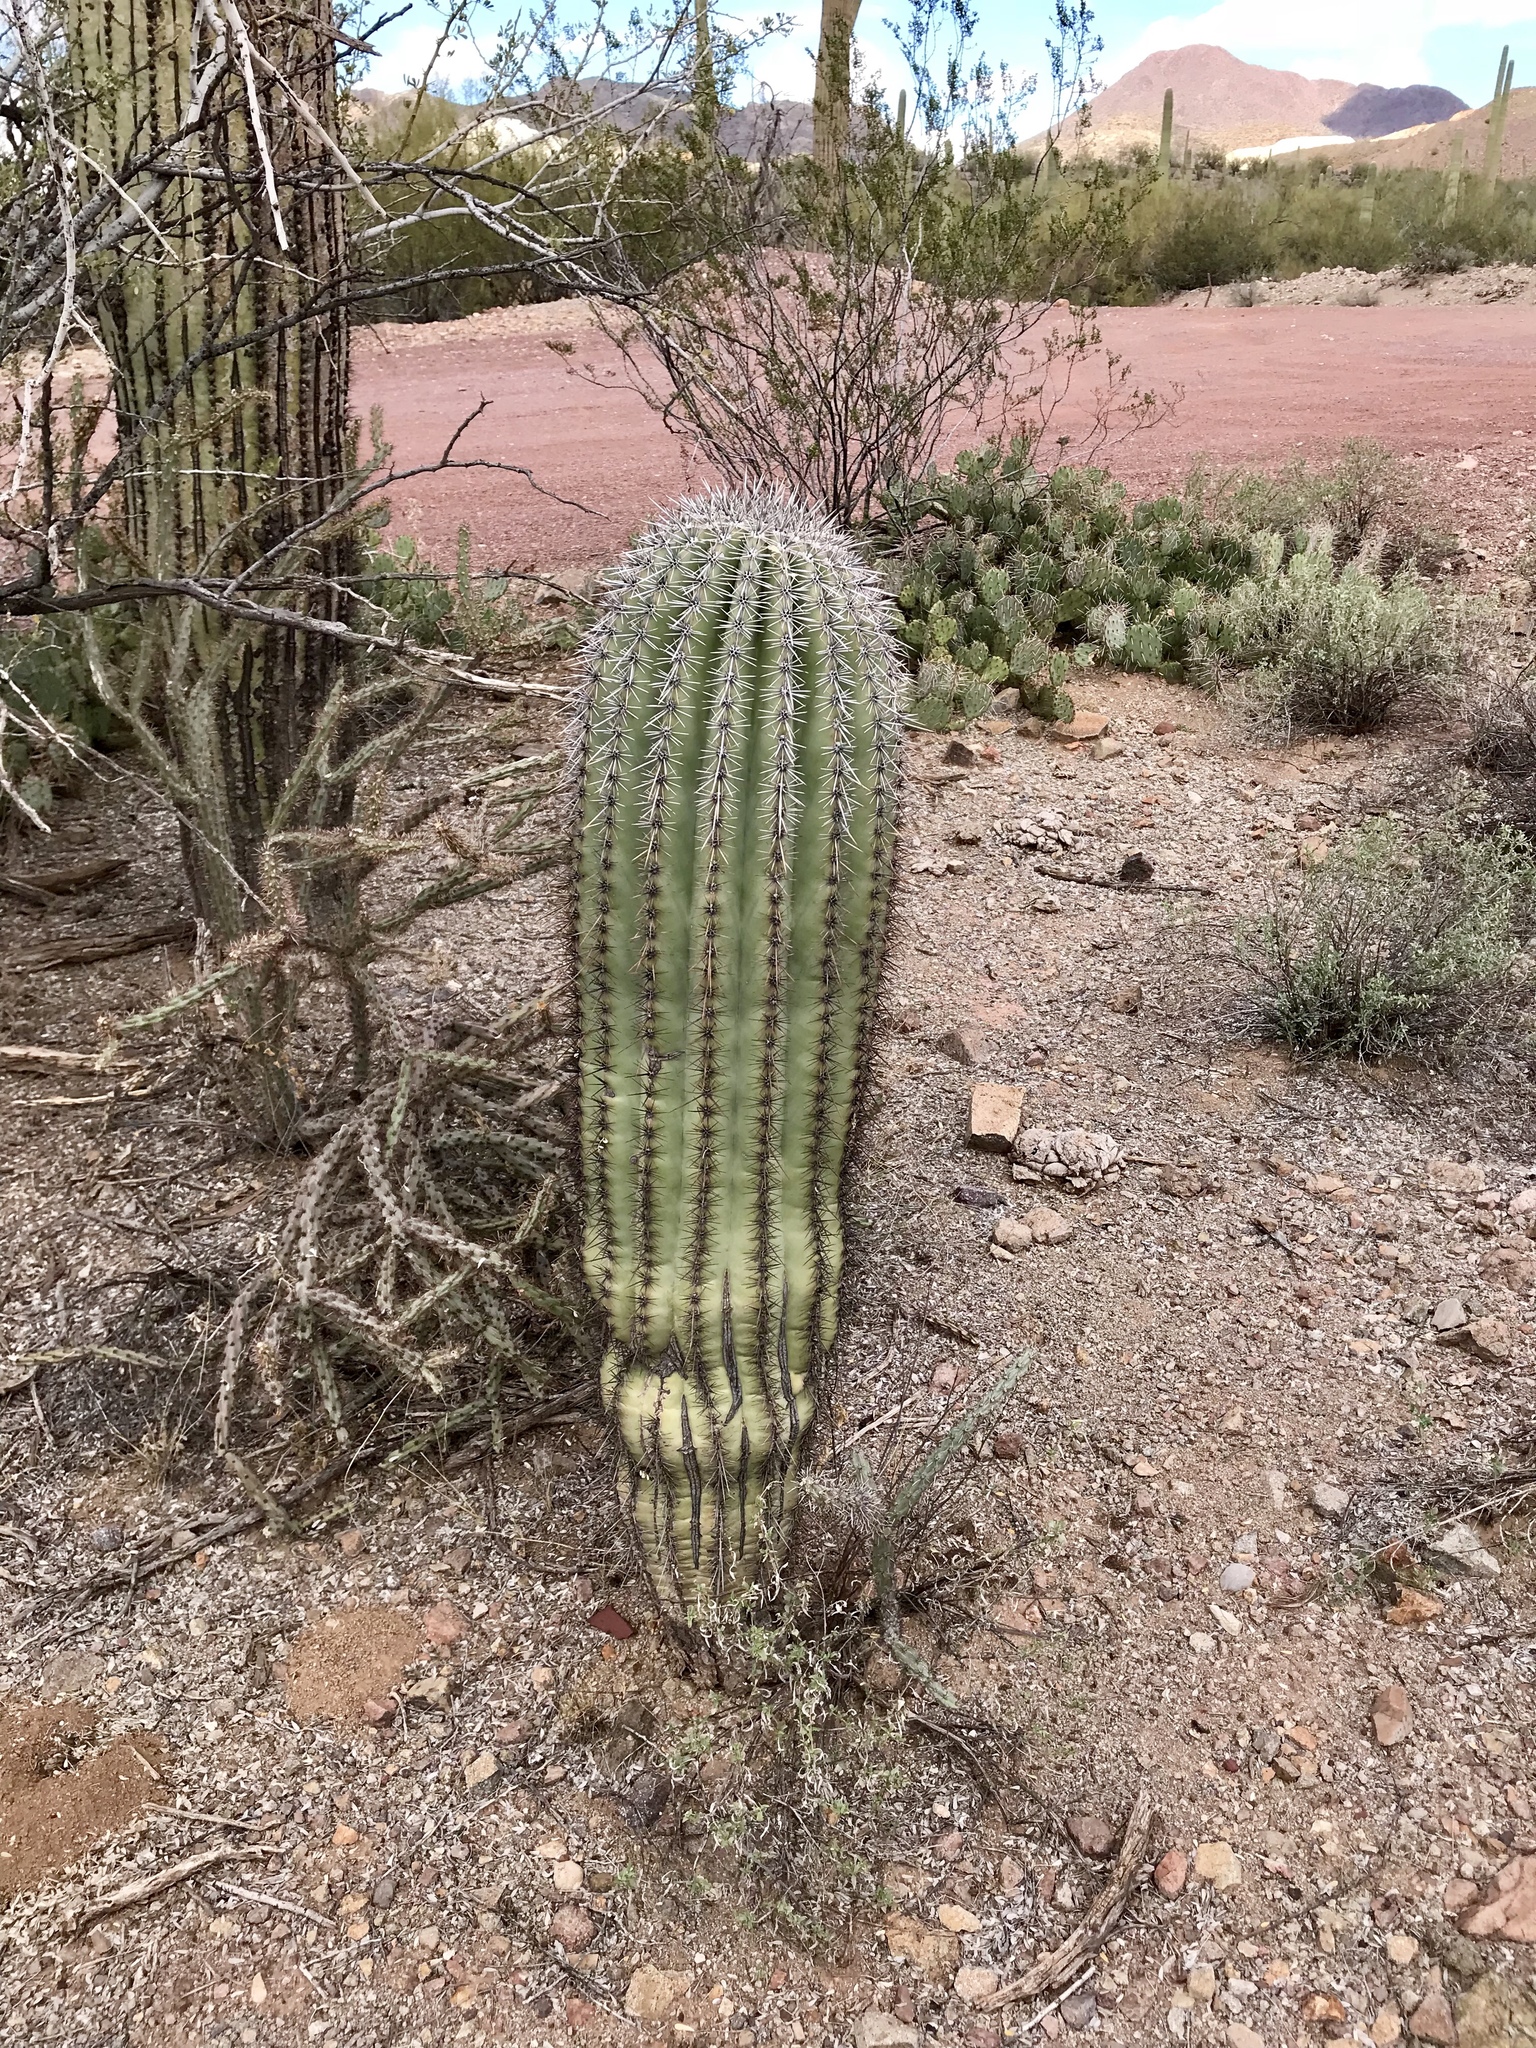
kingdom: Plantae
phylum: Tracheophyta
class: Magnoliopsida
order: Caryophyllales
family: Cactaceae
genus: Carnegiea
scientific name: Carnegiea gigantea
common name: Saguaro
